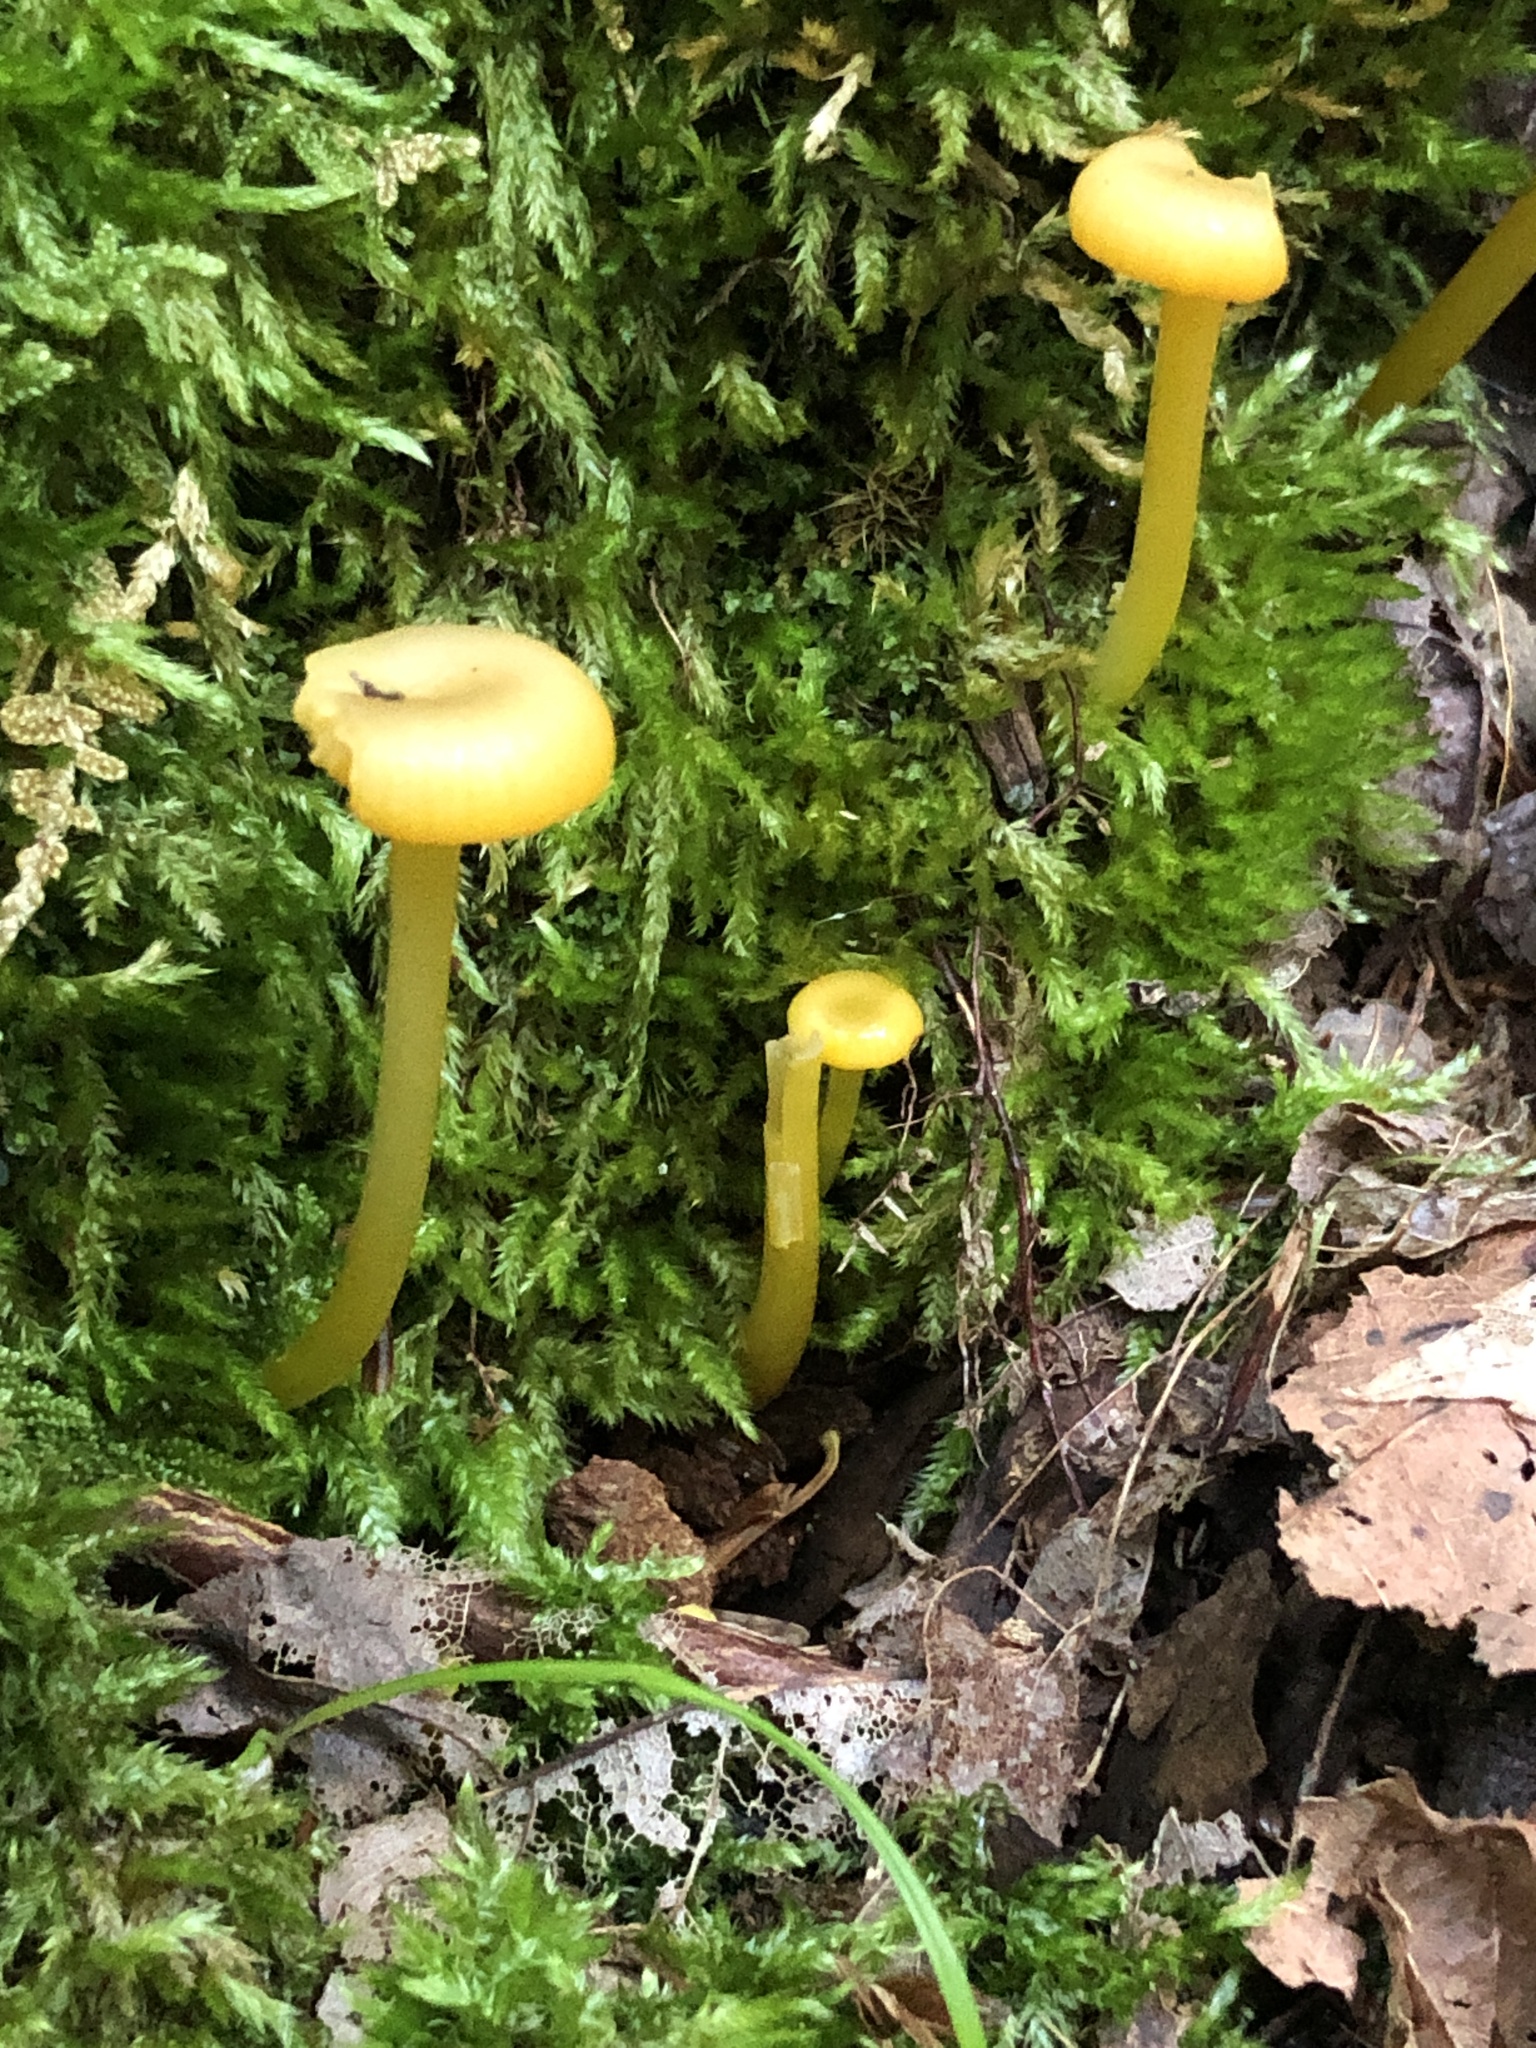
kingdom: Fungi
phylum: Basidiomycota
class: Agaricomycetes
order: Agaricales
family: Hygrophoraceae
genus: Gloioxanthomyces
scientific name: Gloioxanthomyces nitidus
